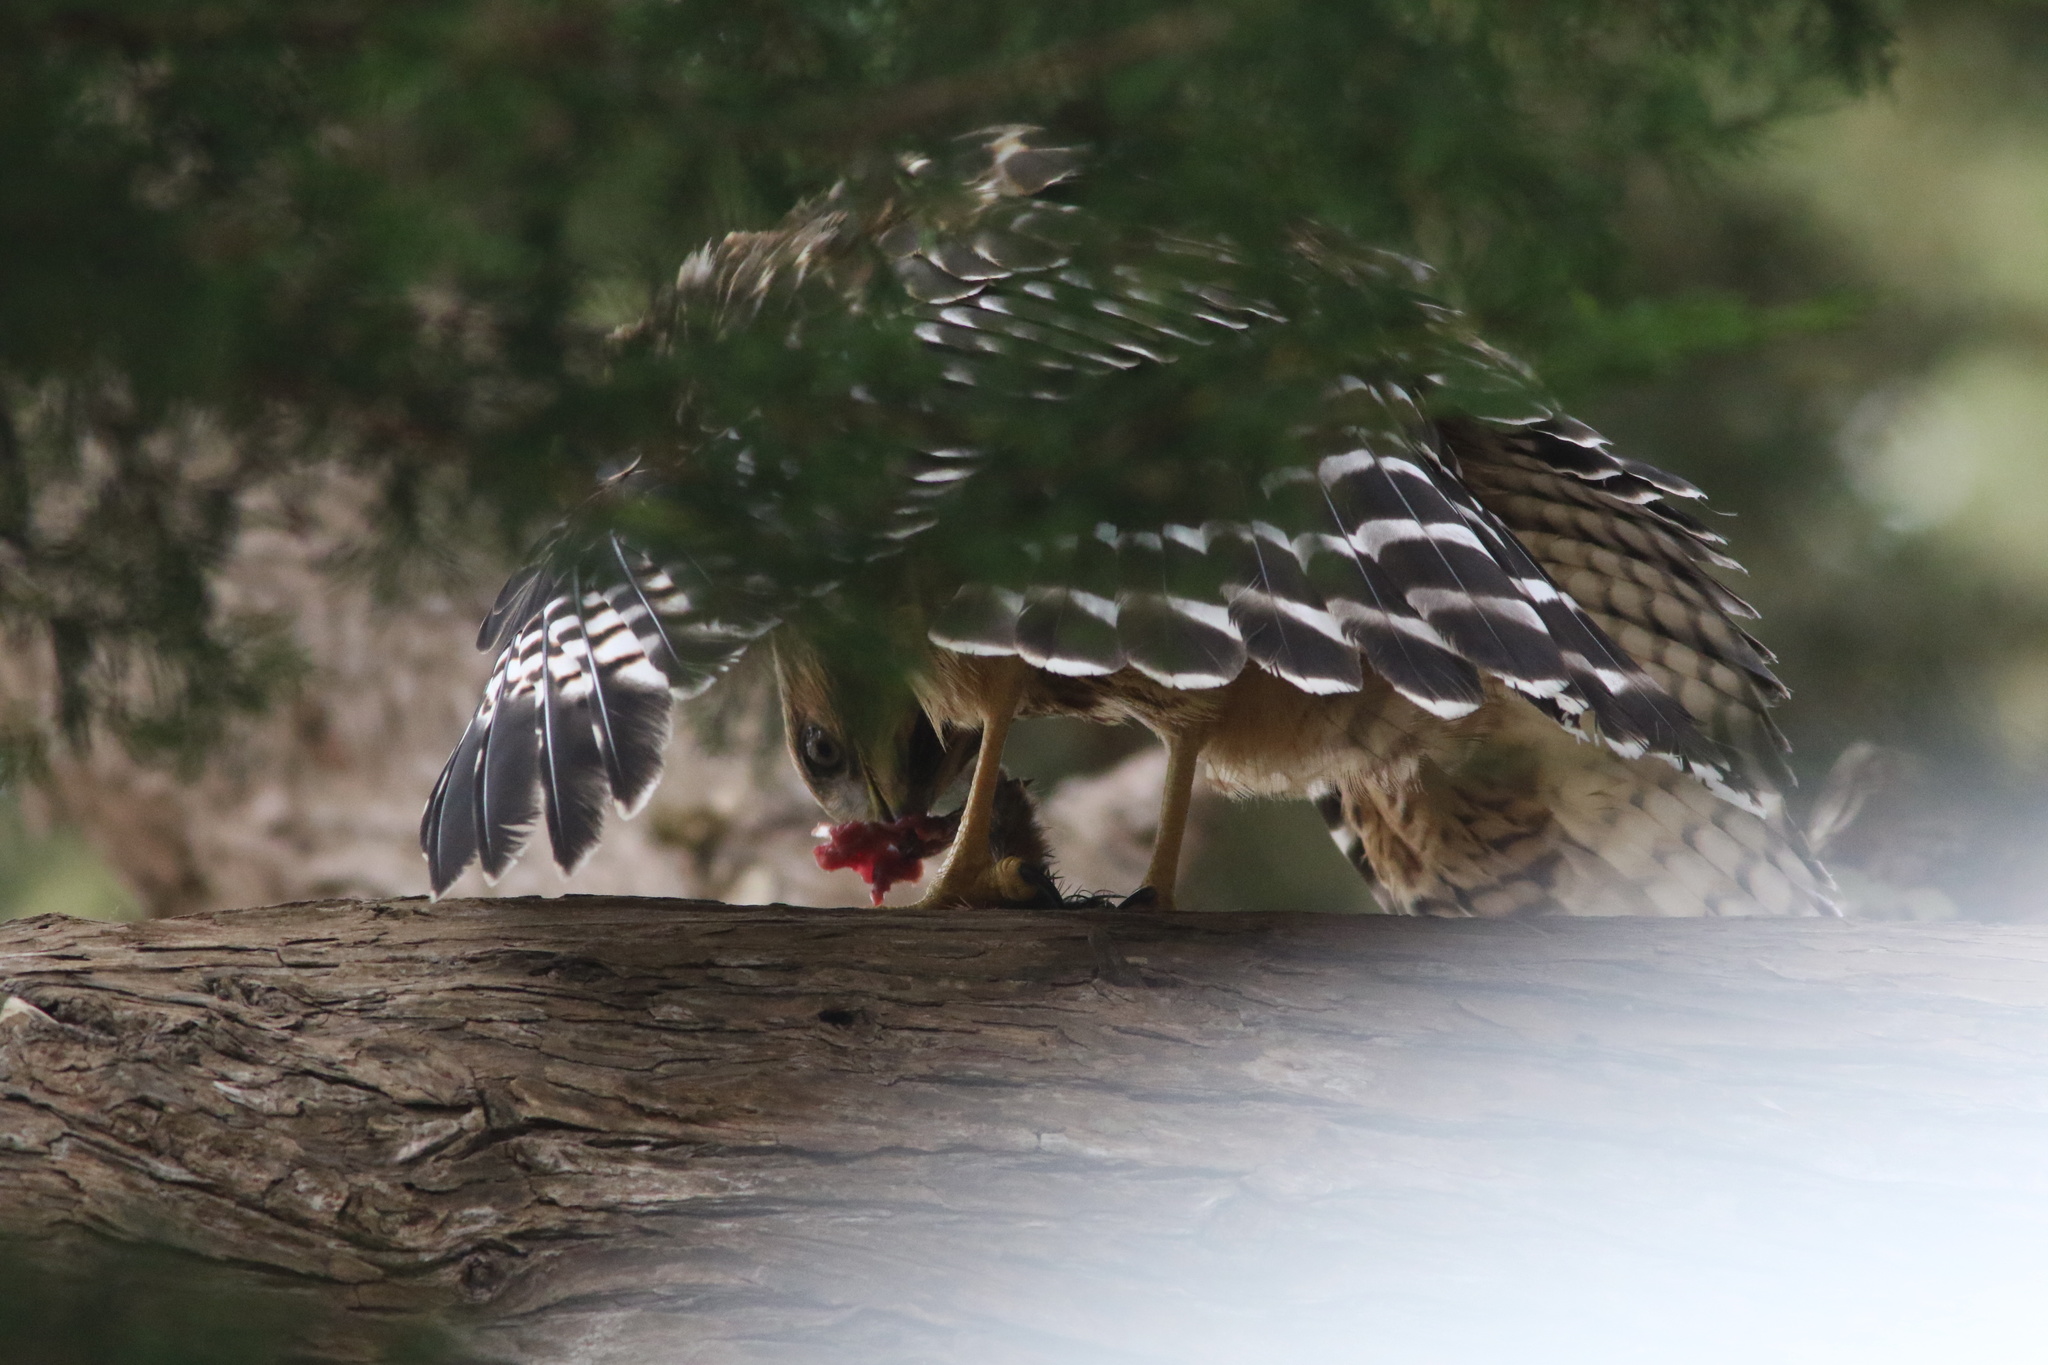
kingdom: Animalia
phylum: Chordata
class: Aves
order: Accipitriformes
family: Accipitridae
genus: Buteo
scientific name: Buteo lineatus
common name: Red-shouldered hawk
